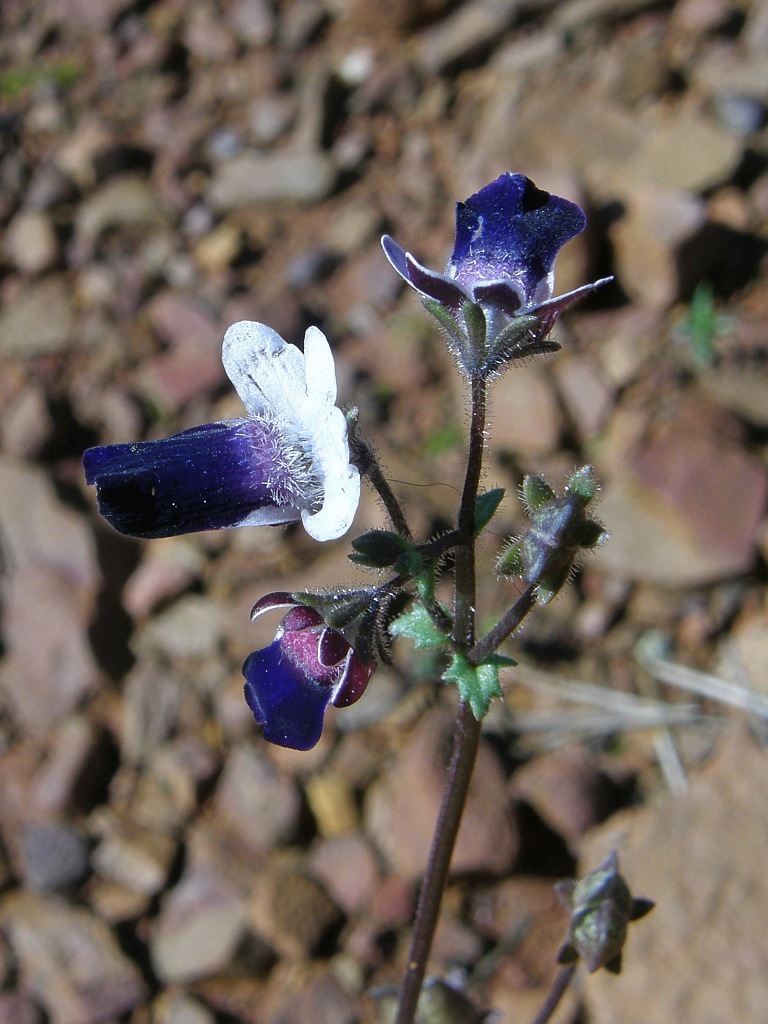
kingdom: Plantae
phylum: Tracheophyta
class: Magnoliopsida
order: Lamiales
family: Scrophulariaceae
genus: Nemesia
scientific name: Nemesia barbata
